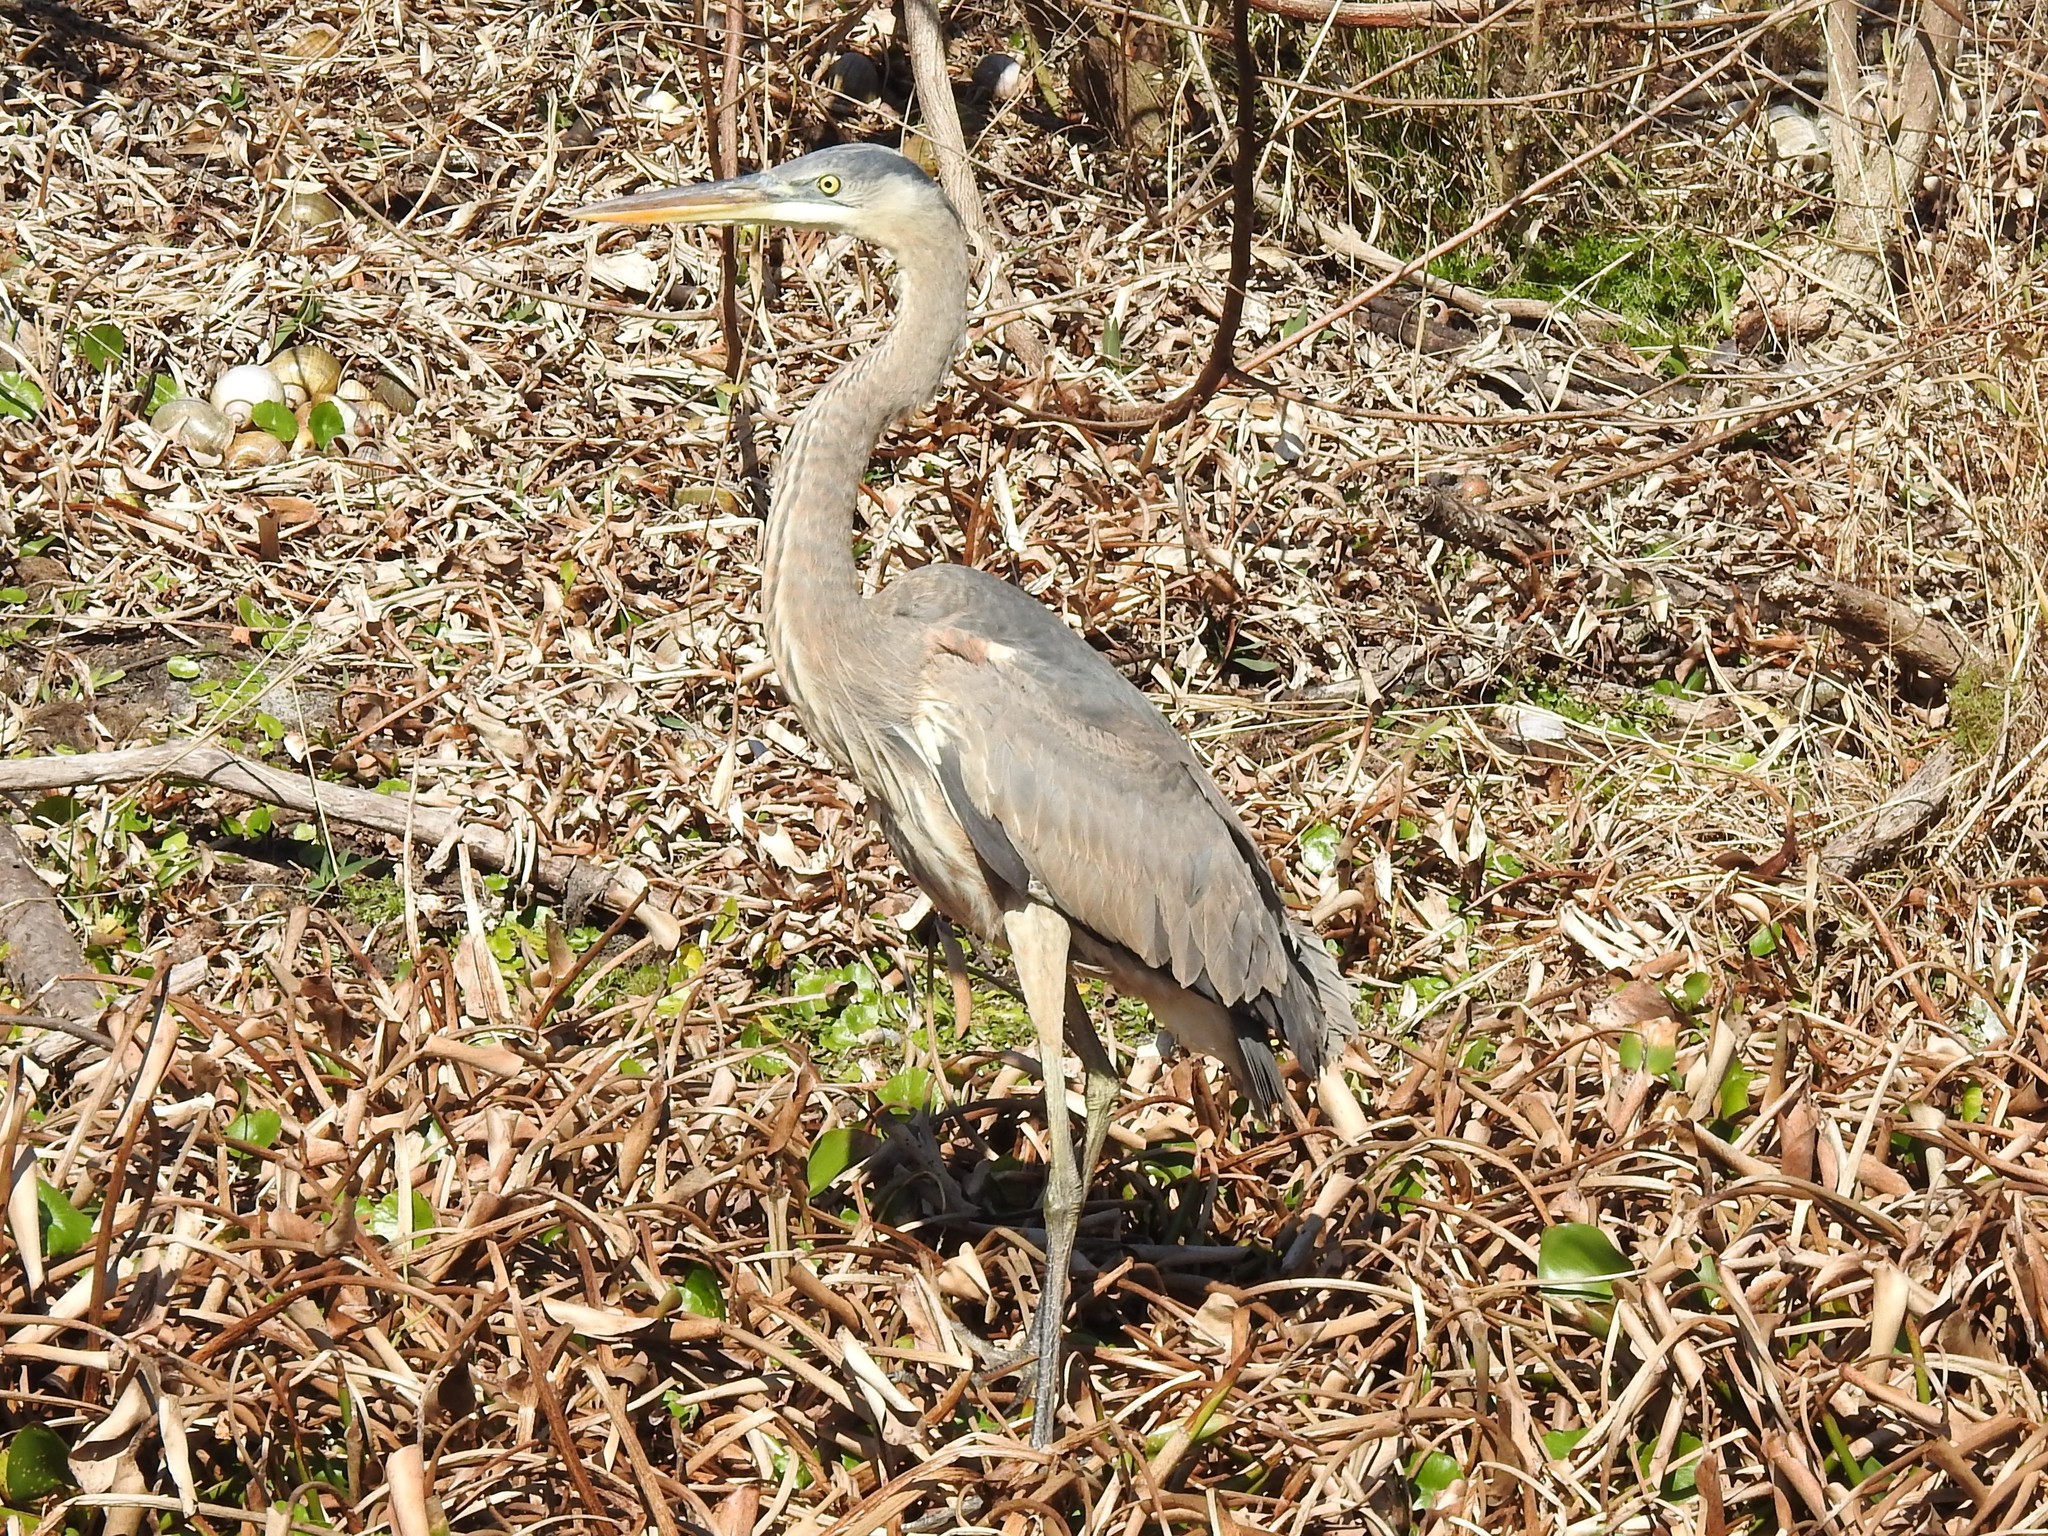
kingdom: Animalia
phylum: Chordata
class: Aves
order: Pelecaniformes
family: Ardeidae
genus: Ardea
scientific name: Ardea herodias
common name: Great blue heron
